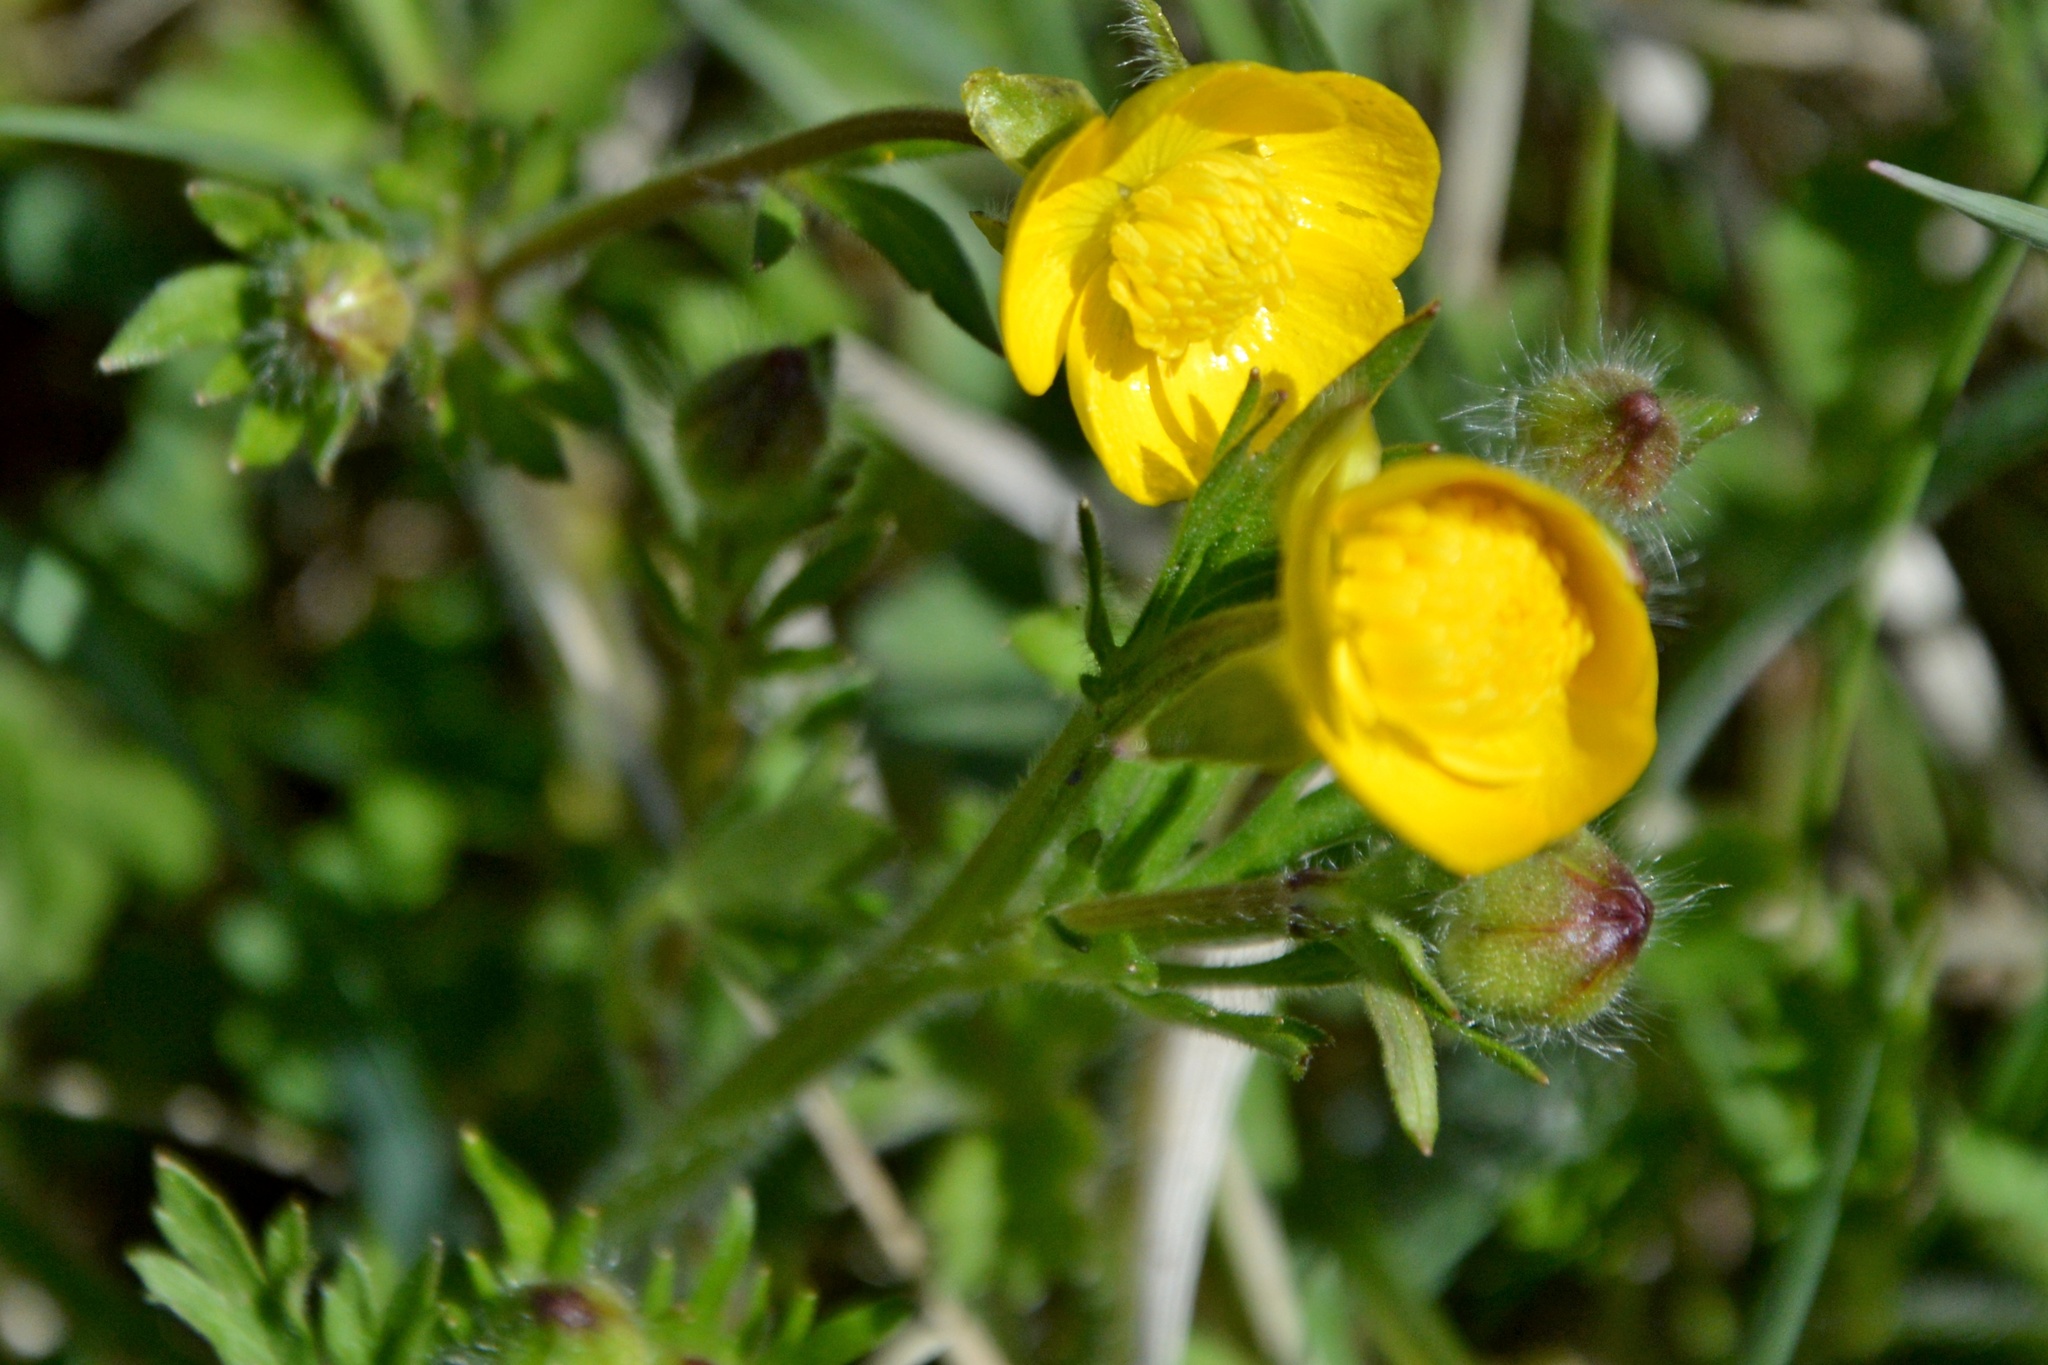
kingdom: Plantae
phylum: Tracheophyta
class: Magnoliopsida
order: Ranunculales
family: Ranunculaceae
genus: Ranunculus
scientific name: Ranunculus bulbosus
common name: Bulbous buttercup
